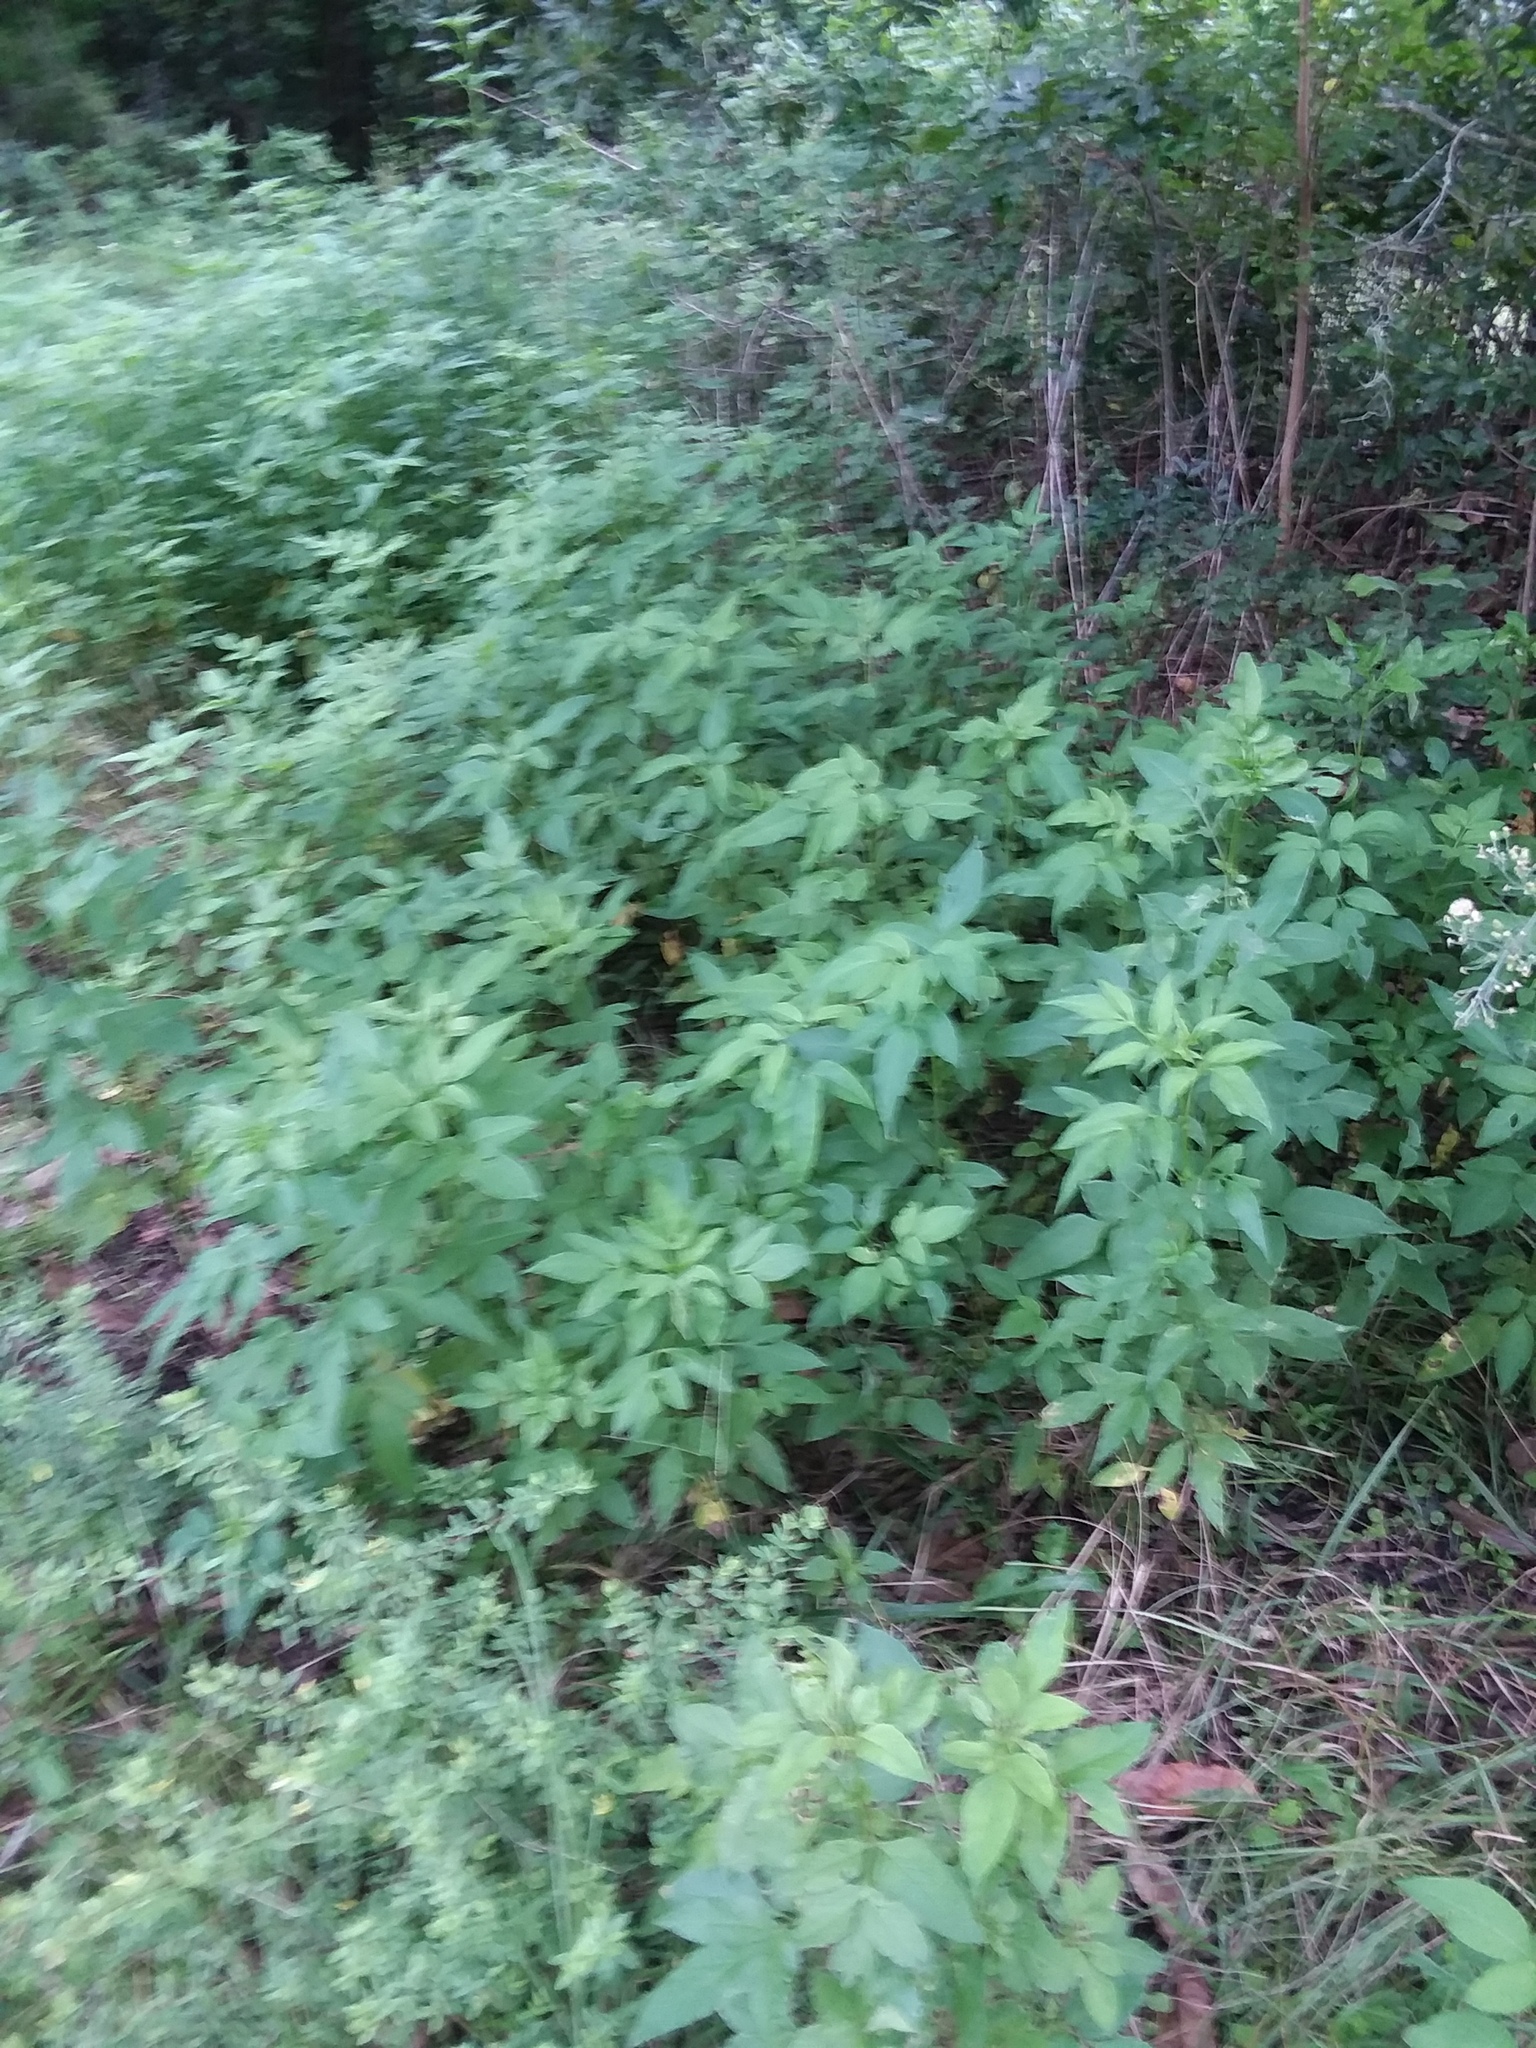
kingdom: Plantae
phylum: Tracheophyta
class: Magnoliopsida
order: Asterales
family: Asteraceae
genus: Bidens
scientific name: Bidens alba
